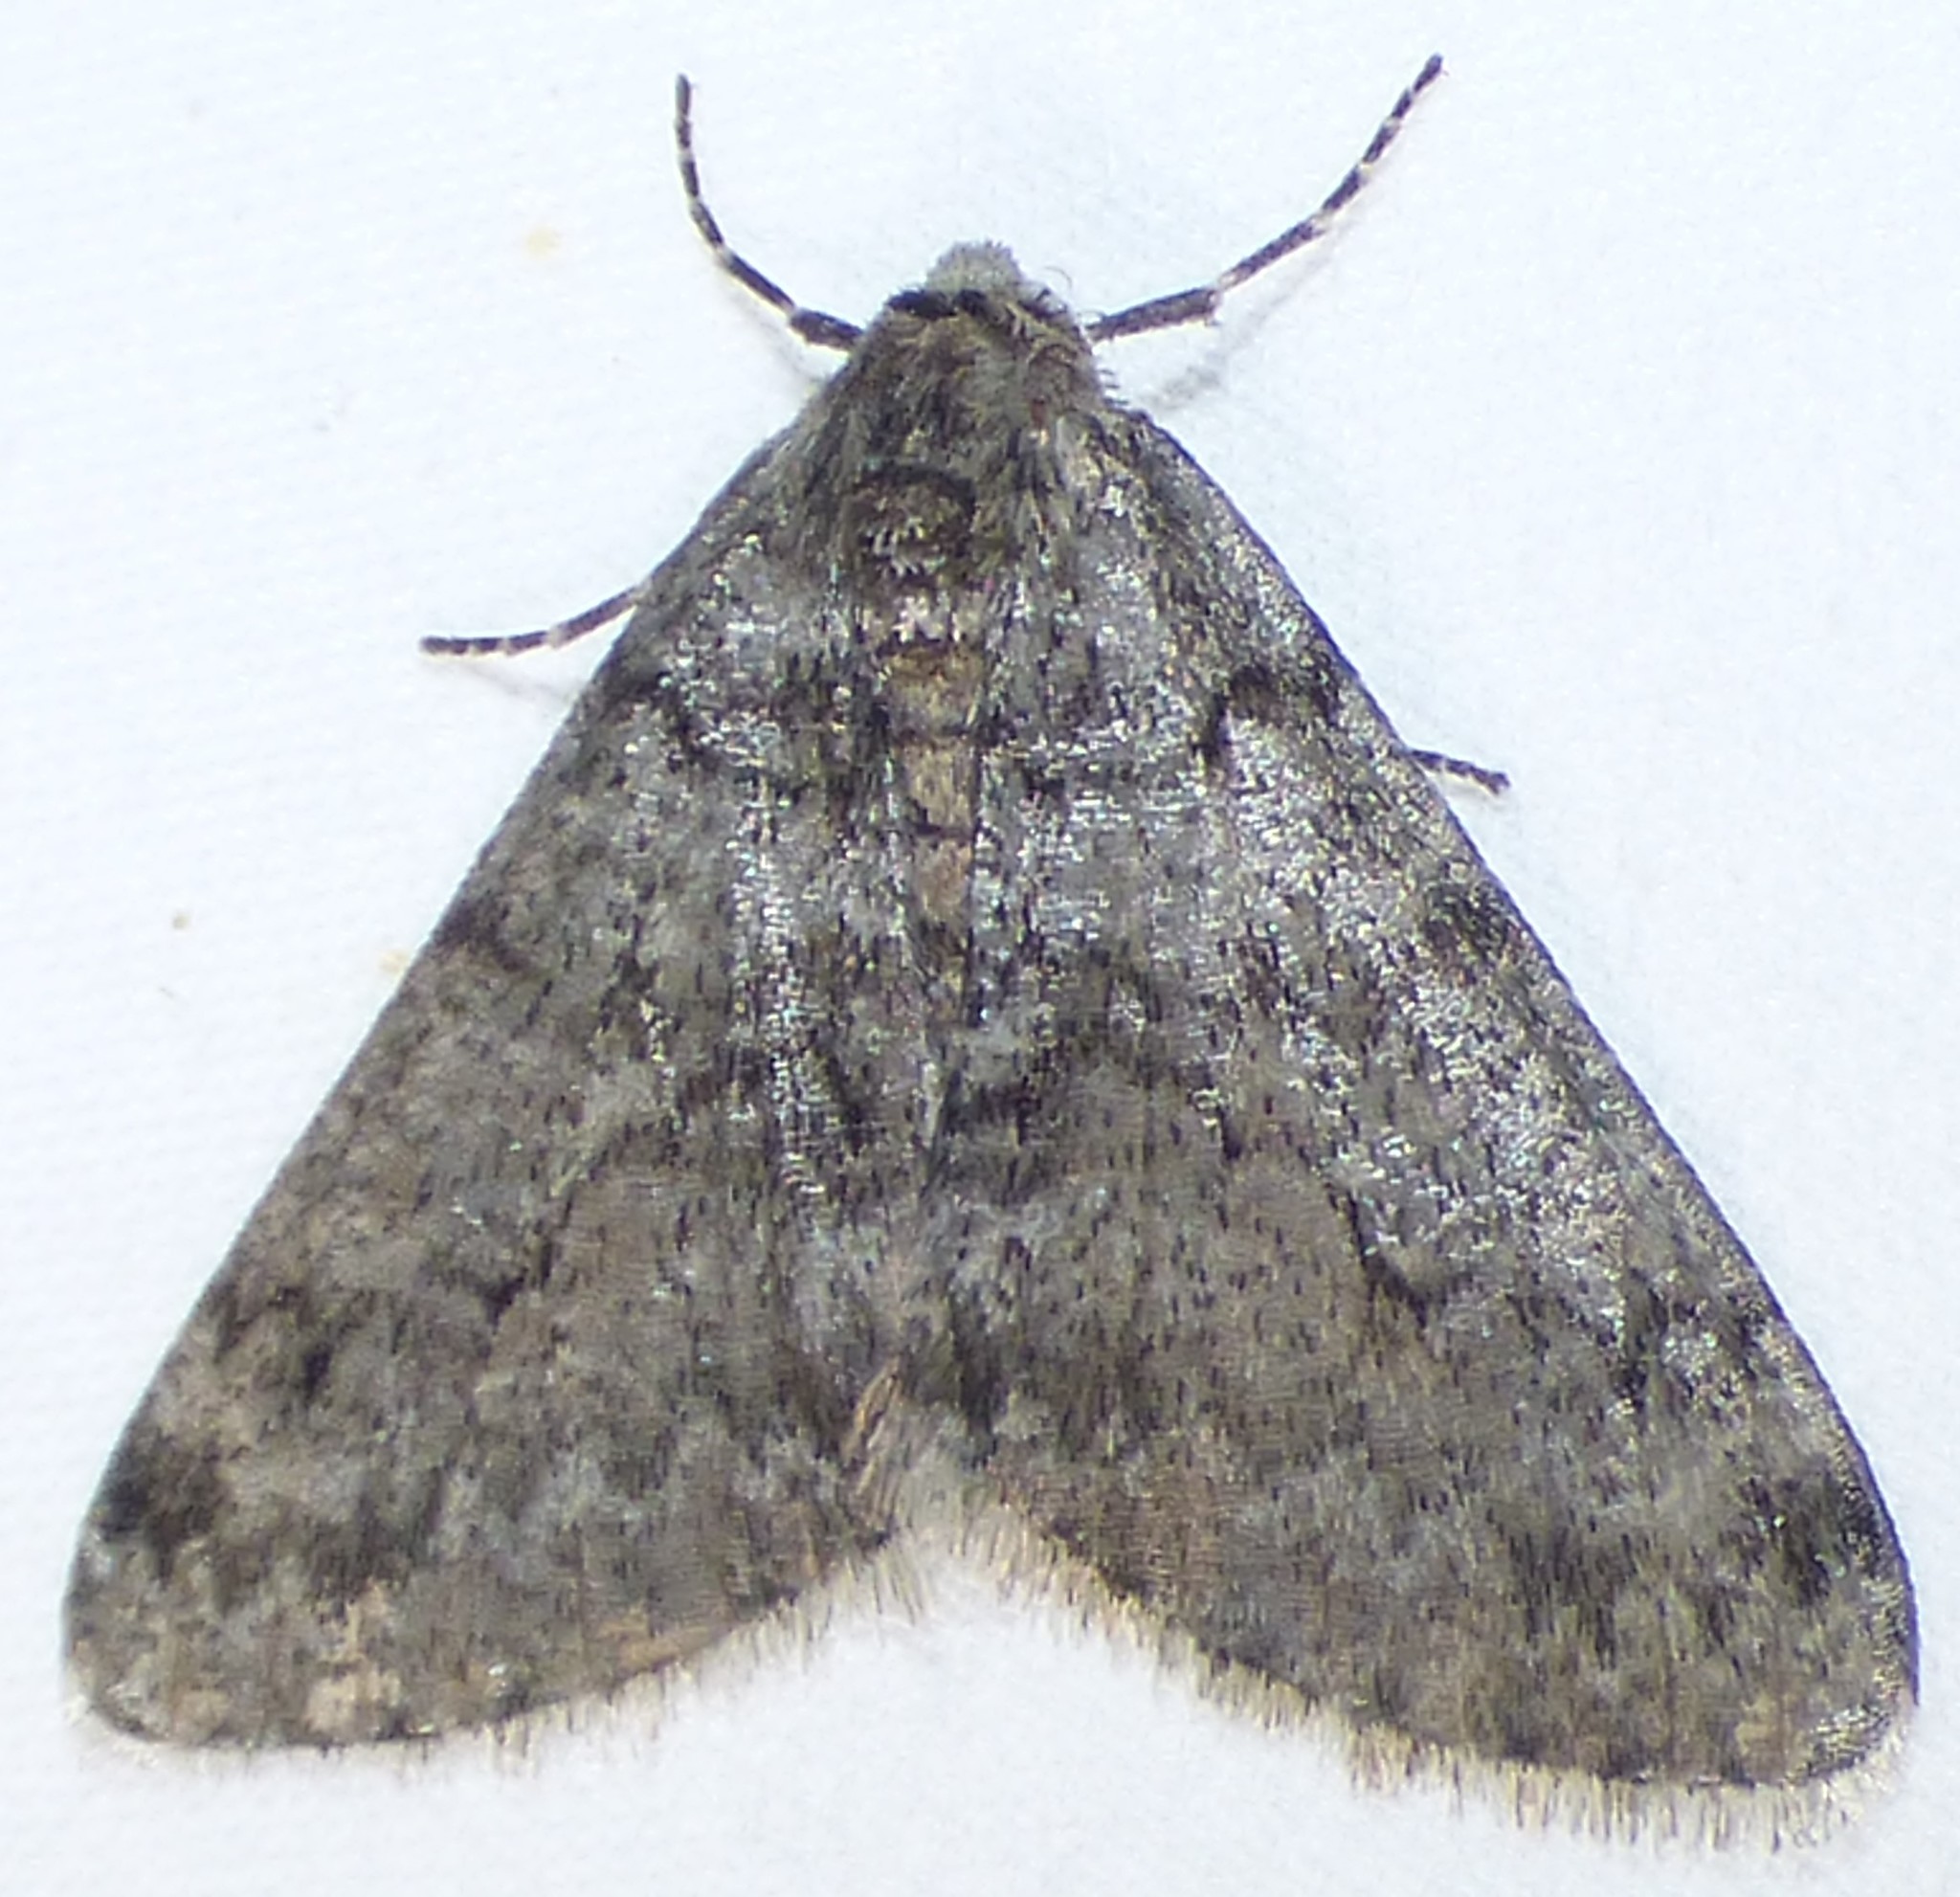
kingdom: Animalia
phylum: Arthropoda
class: Insecta
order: Lepidoptera
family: Geometridae
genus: Phigalia
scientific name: Phigalia denticulata
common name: Toothed phigalia
